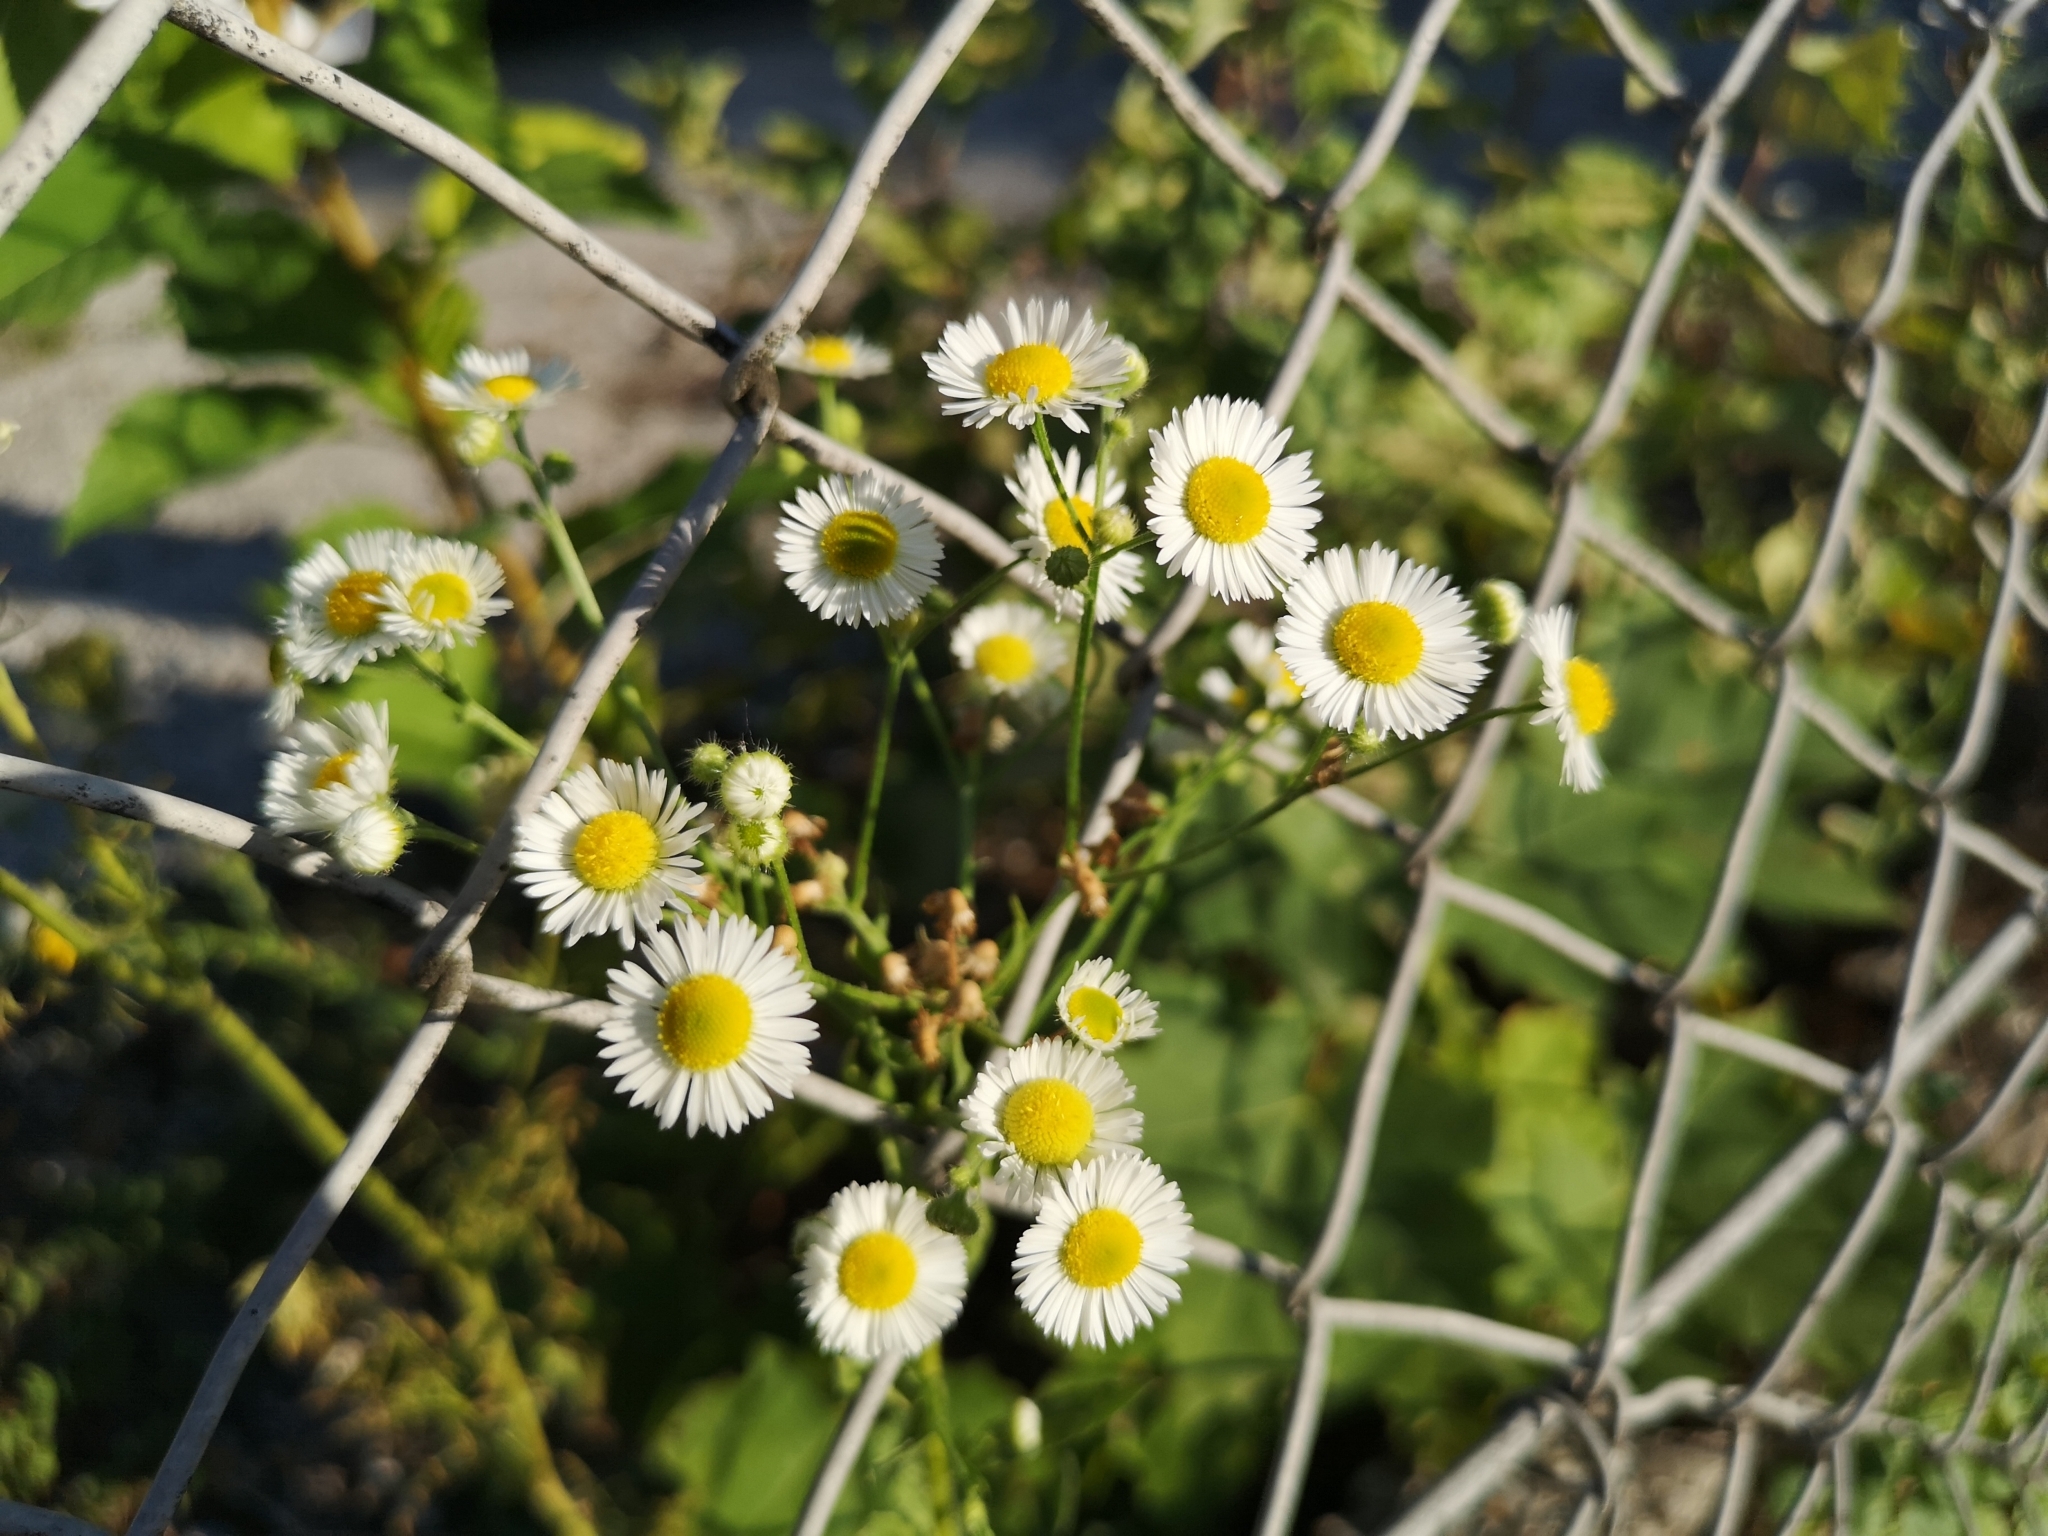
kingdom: Plantae
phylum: Tracheophyta
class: Magnoliopsida
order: Asterales
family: Asteraceae
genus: Erigeron
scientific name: Erigeron annuus
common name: Tall fleabane
